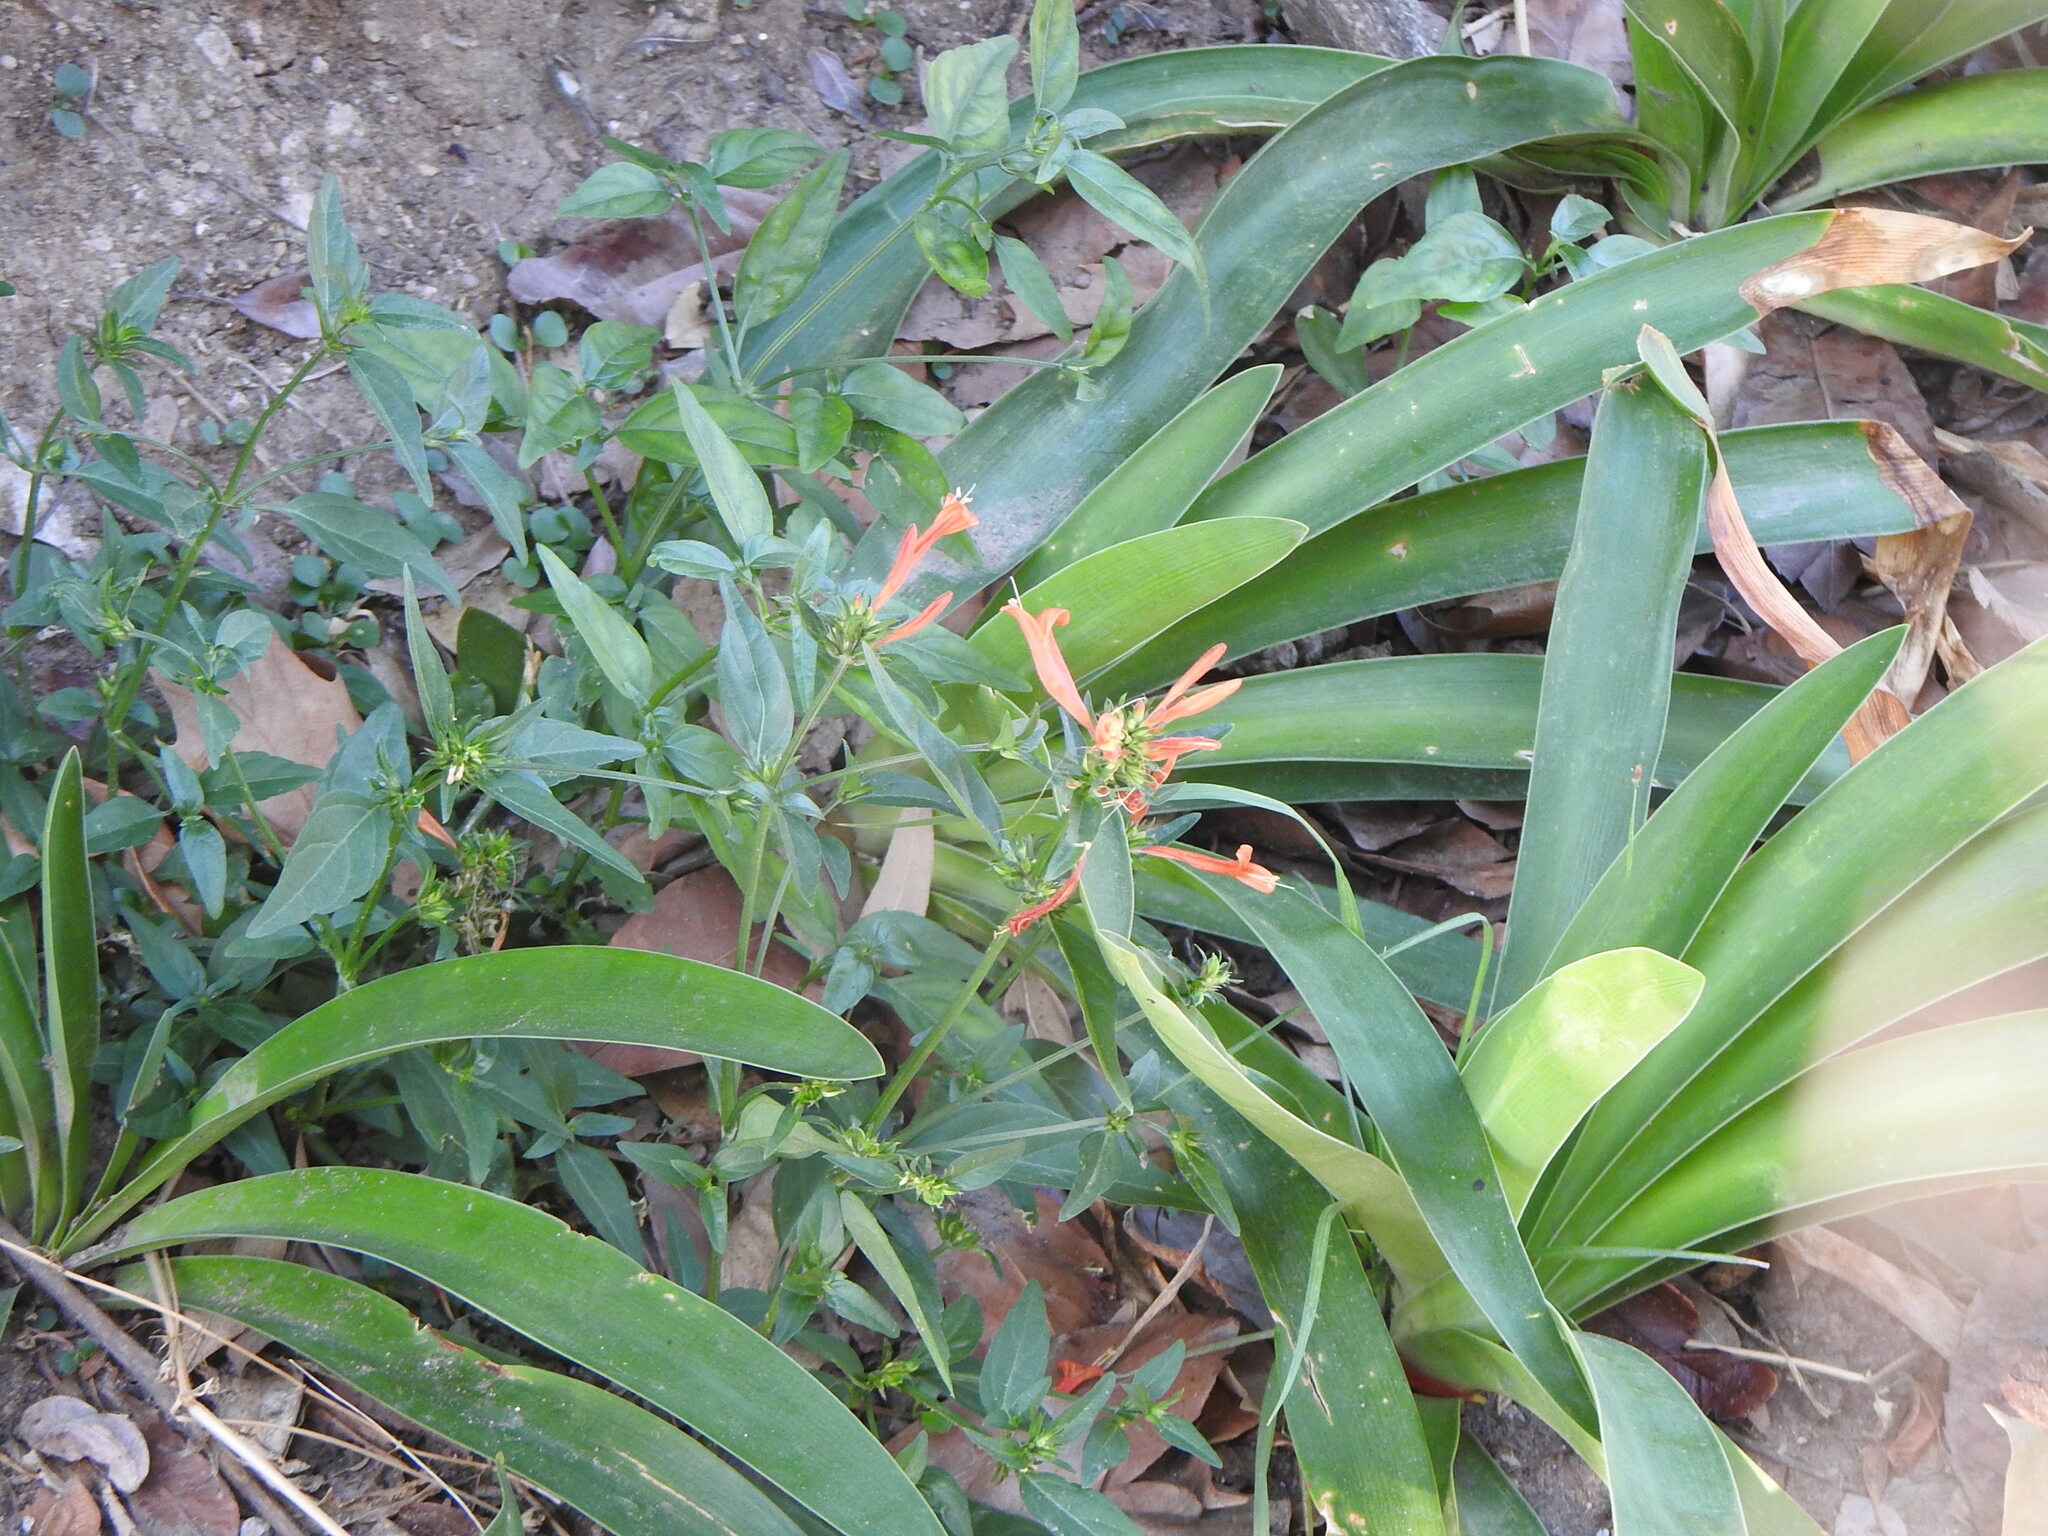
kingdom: Plantae
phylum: Tracheophyta
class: Magnoliopsida
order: Lamiales
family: Acanthaceae
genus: Dicliptera
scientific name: Dicliptera squarrosa
